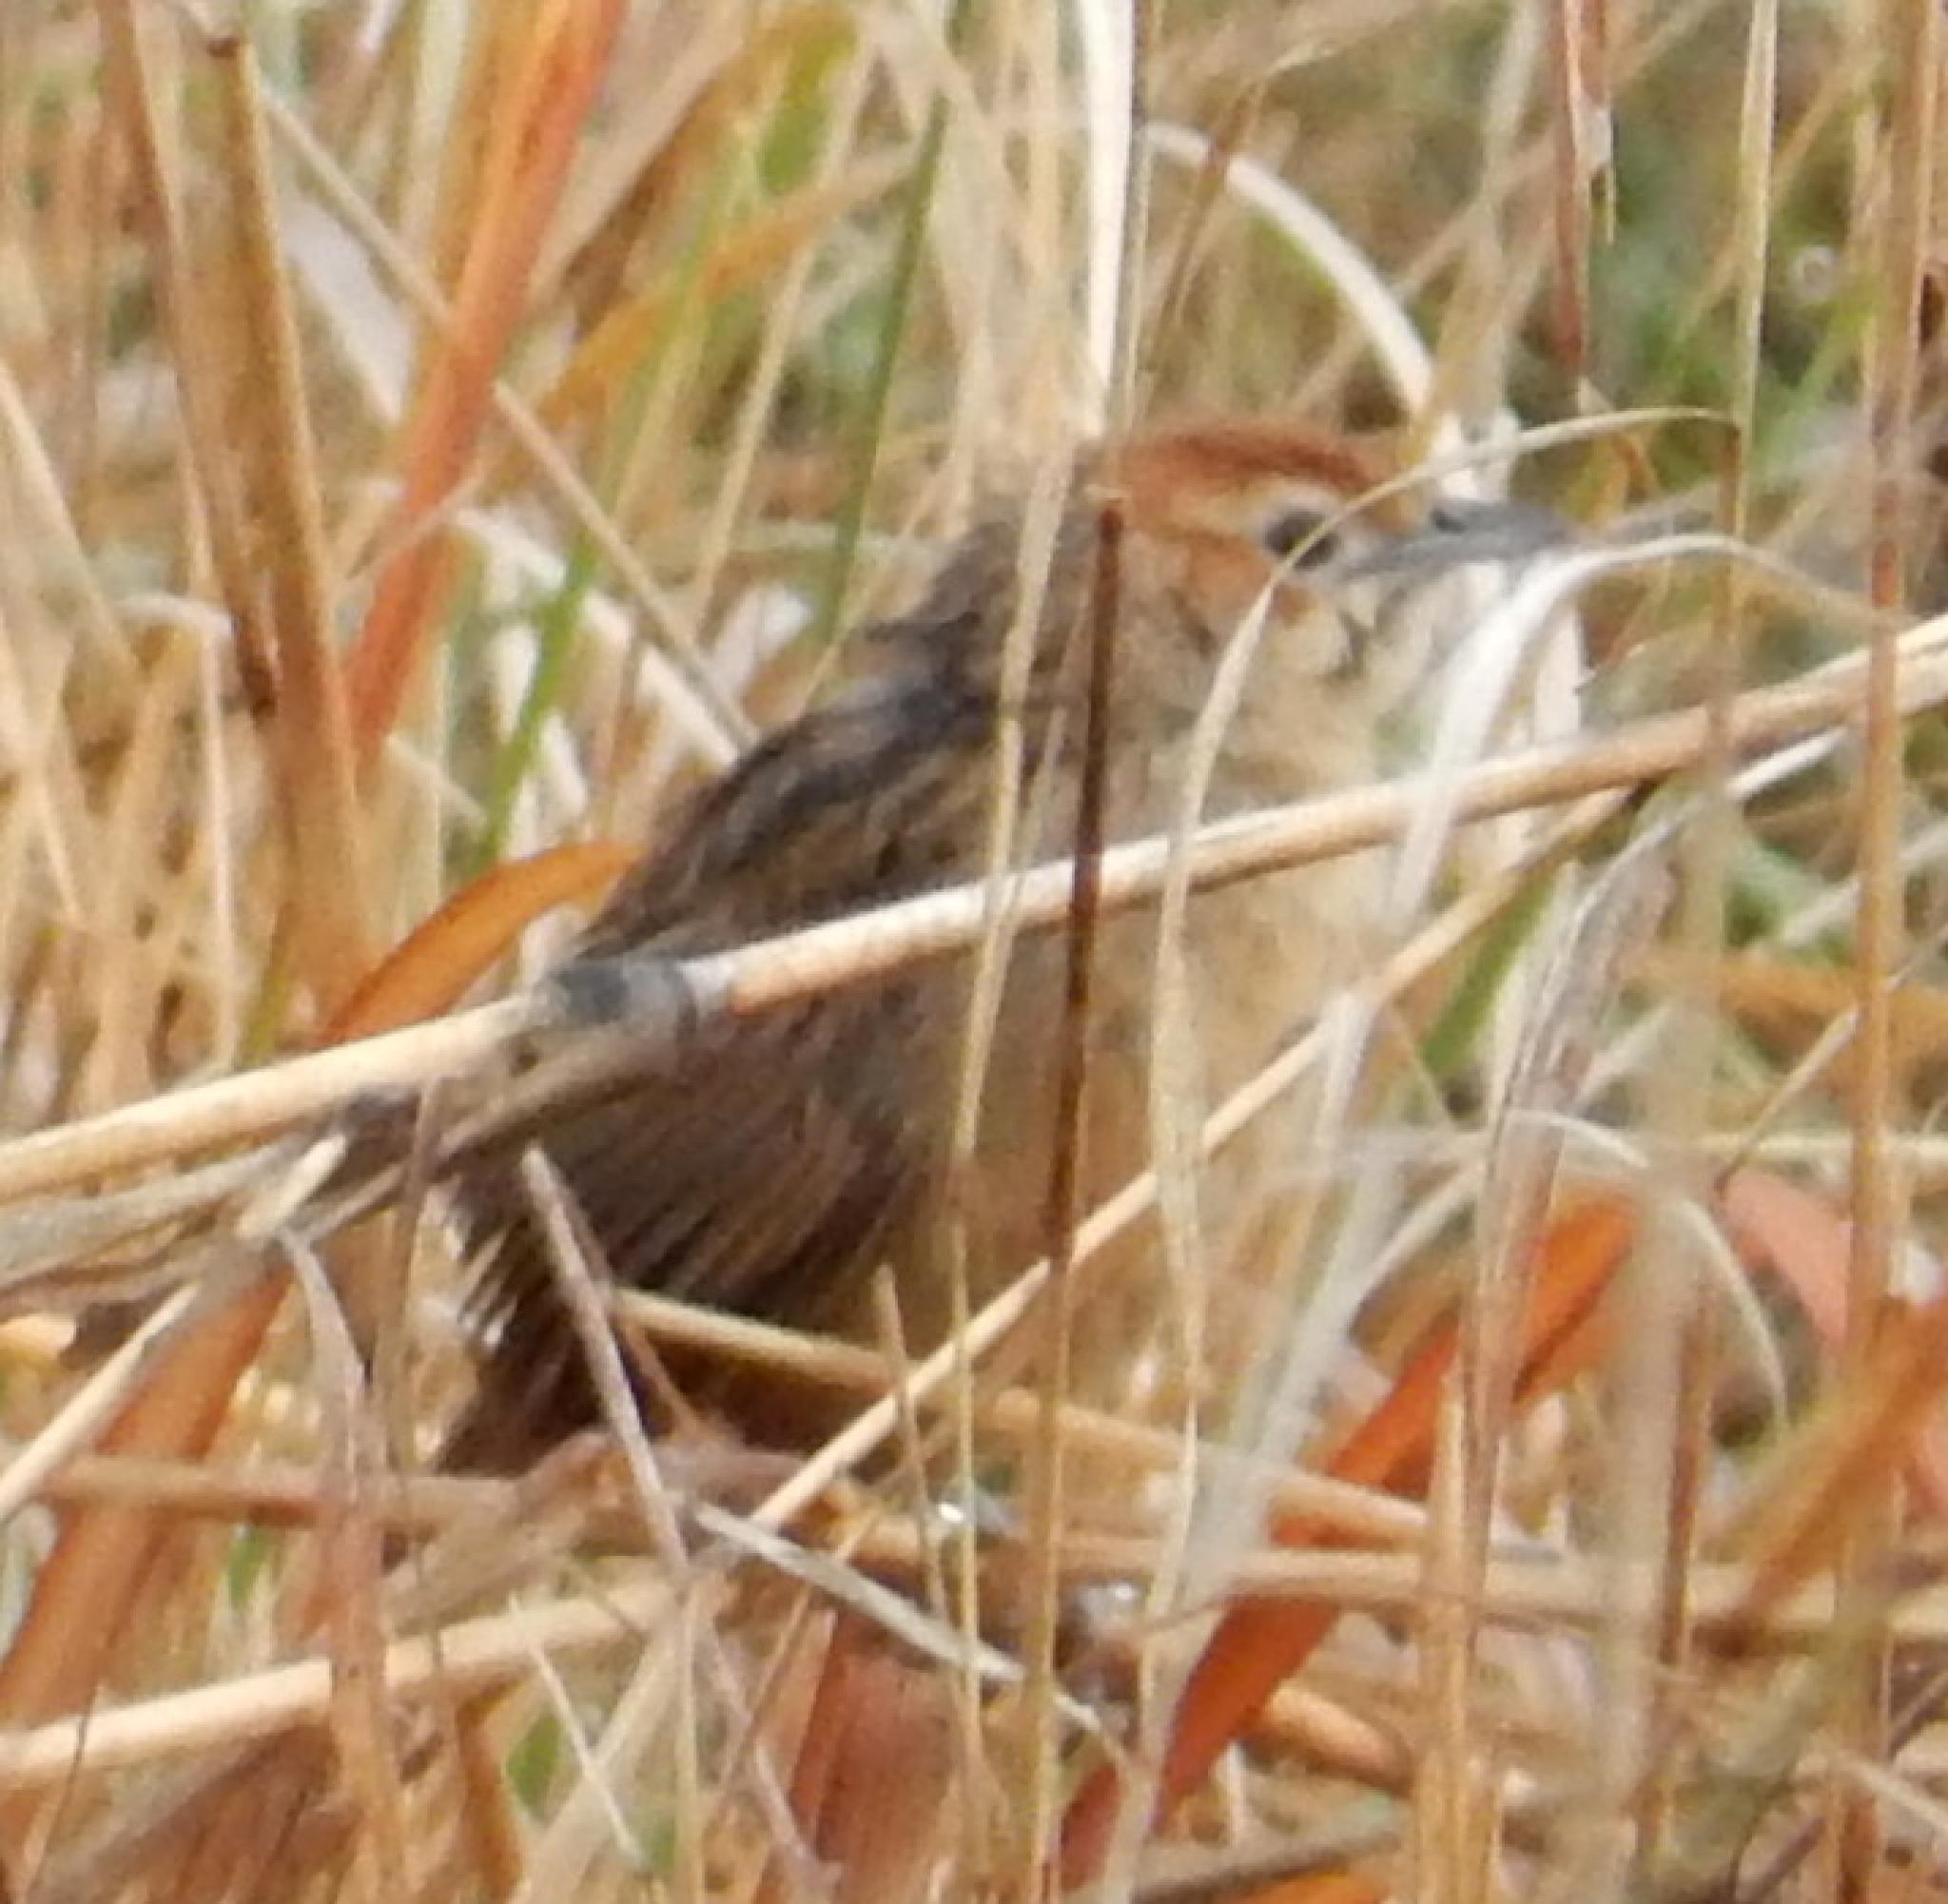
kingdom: Animalia
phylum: Chordata
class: Aves
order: Passeriformes
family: Macrosphenidae
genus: Sphenoeacus
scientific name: Sphenoeacus afer
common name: Cape grassbird
